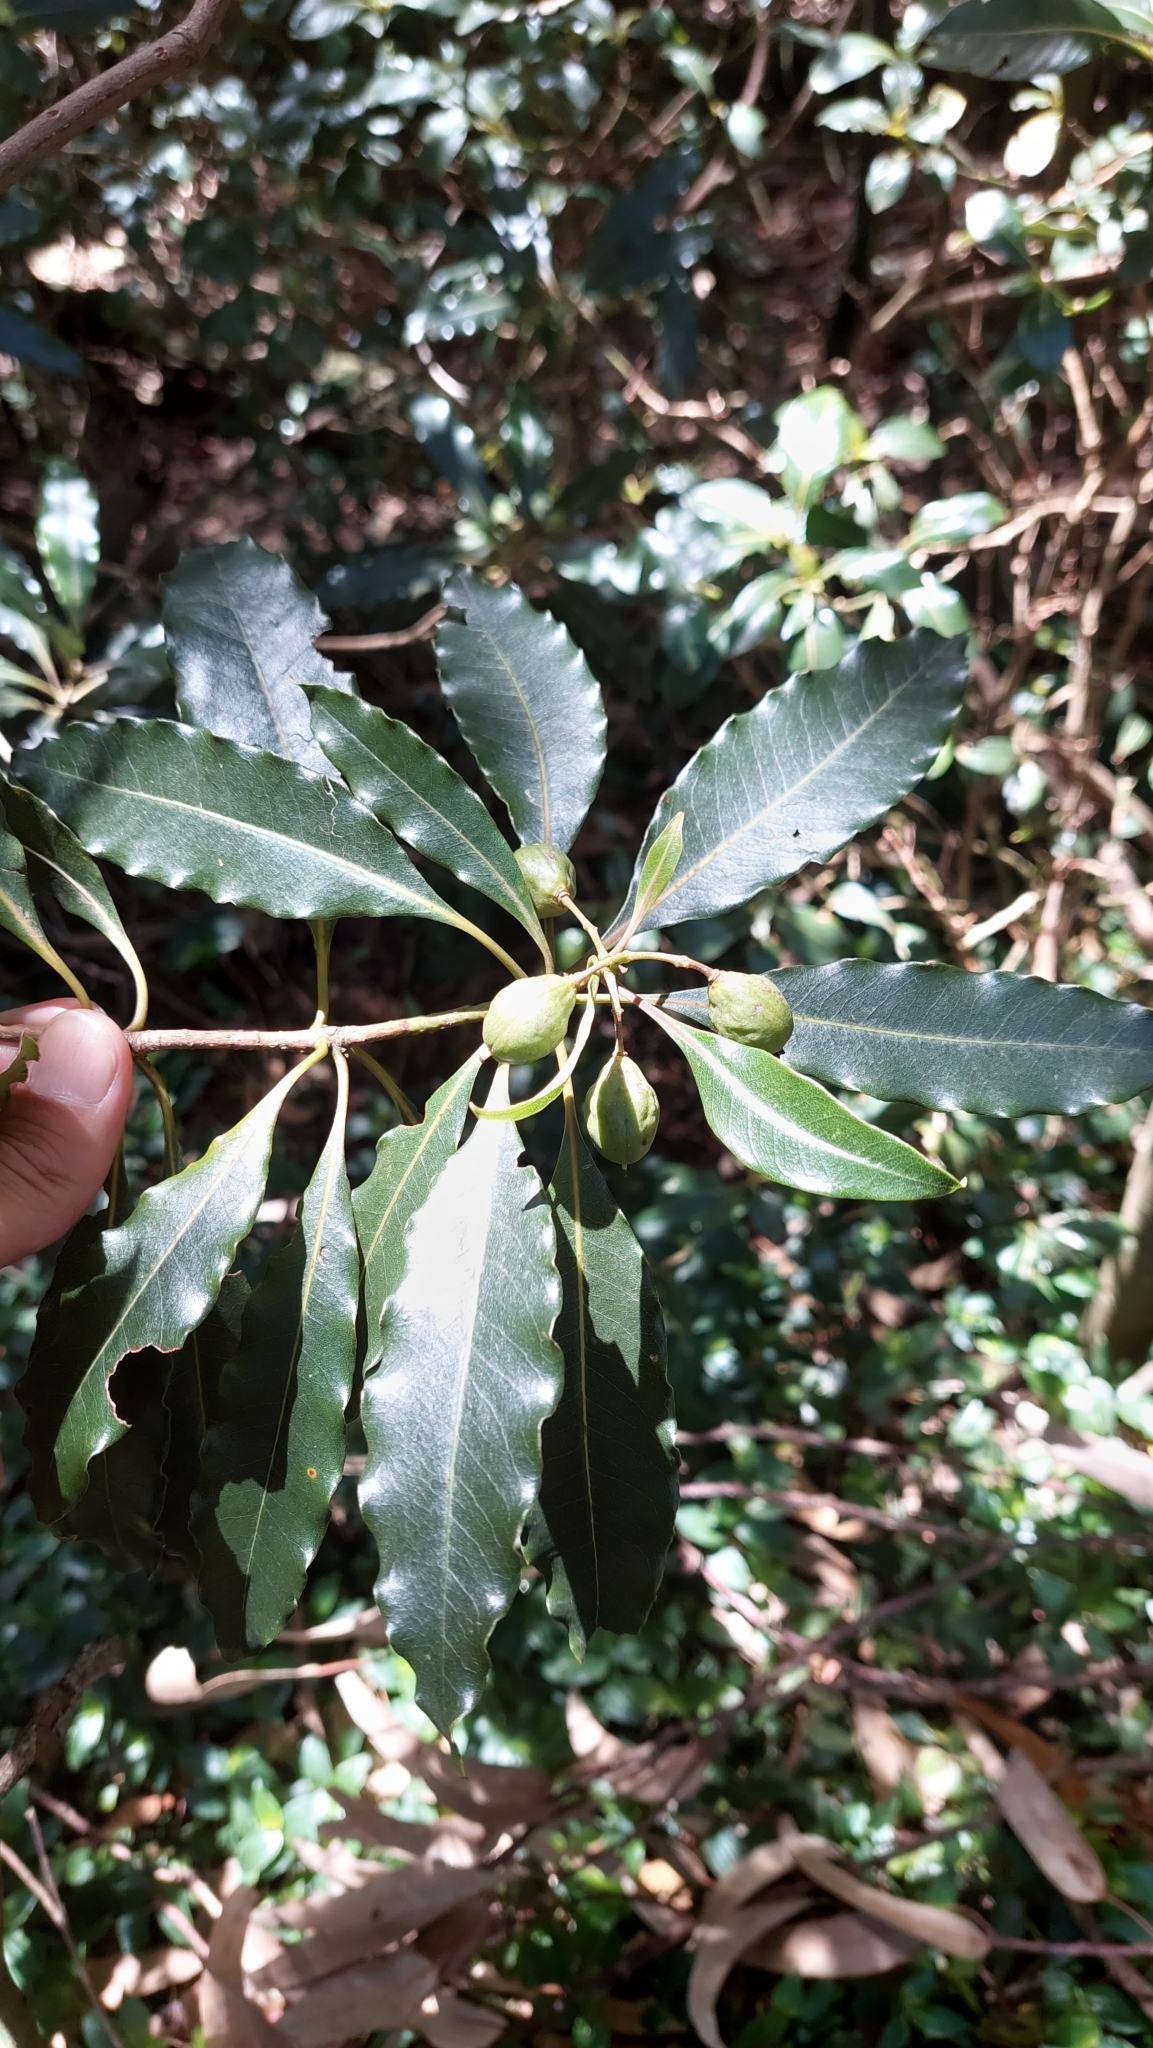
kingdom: Plantae
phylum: Tracheophyta
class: Magnoliopsida
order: Apiales
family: Pittosporaceae
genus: Pittosporum
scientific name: Pittosporum undulatum
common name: Australian cheesewood
